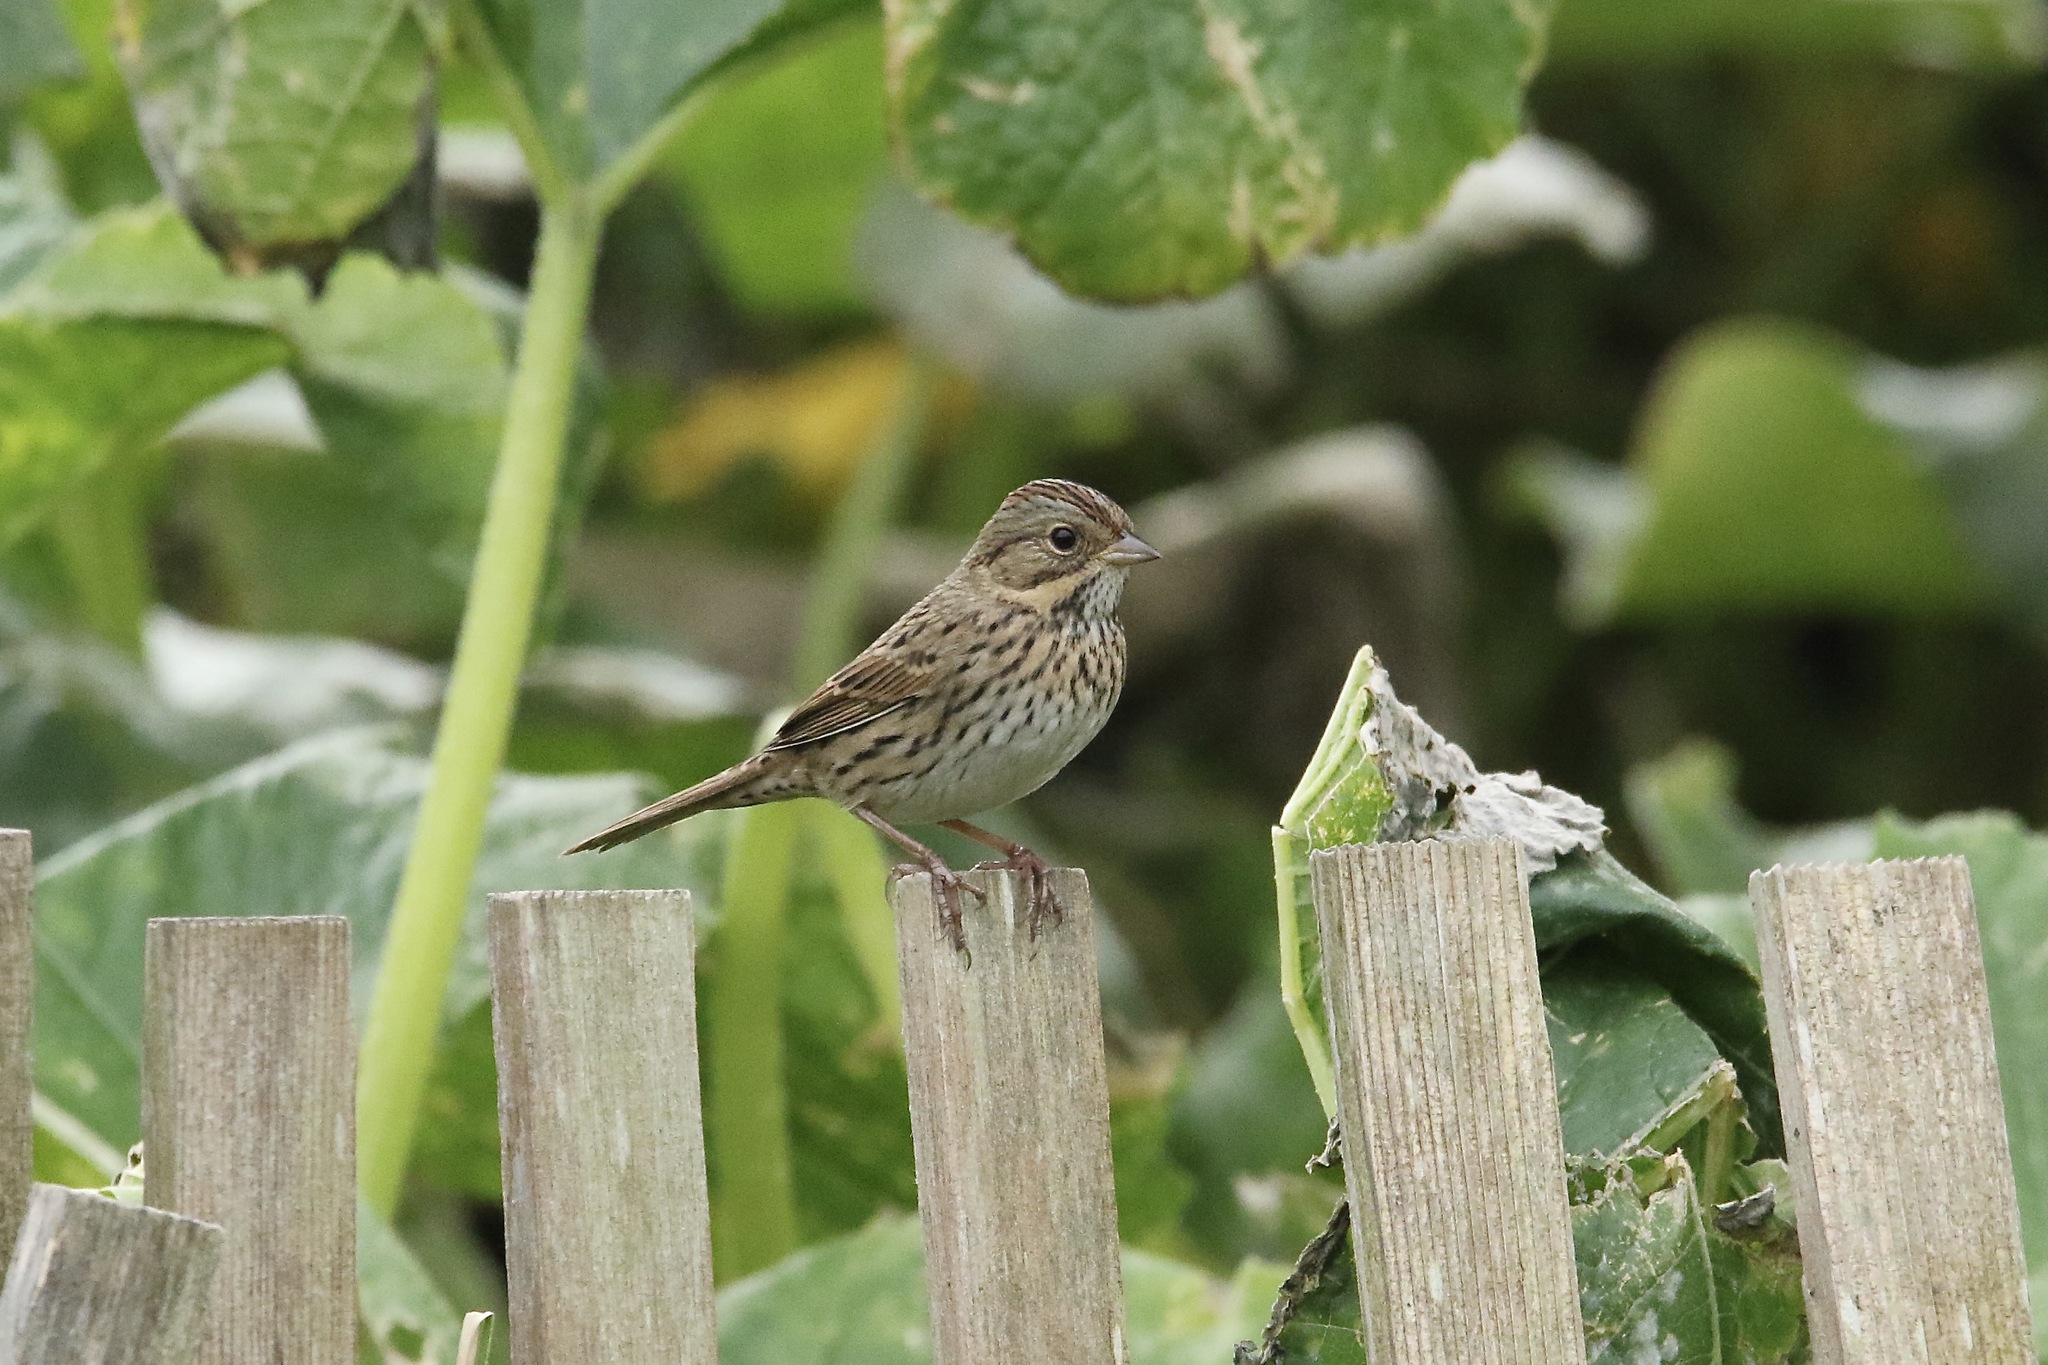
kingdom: Animalia
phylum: Chordata
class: Aves
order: Passeriformes
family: Passerellidae
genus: Melospiza
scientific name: Melospiza lincolnii
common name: Lincoln's sparrow
